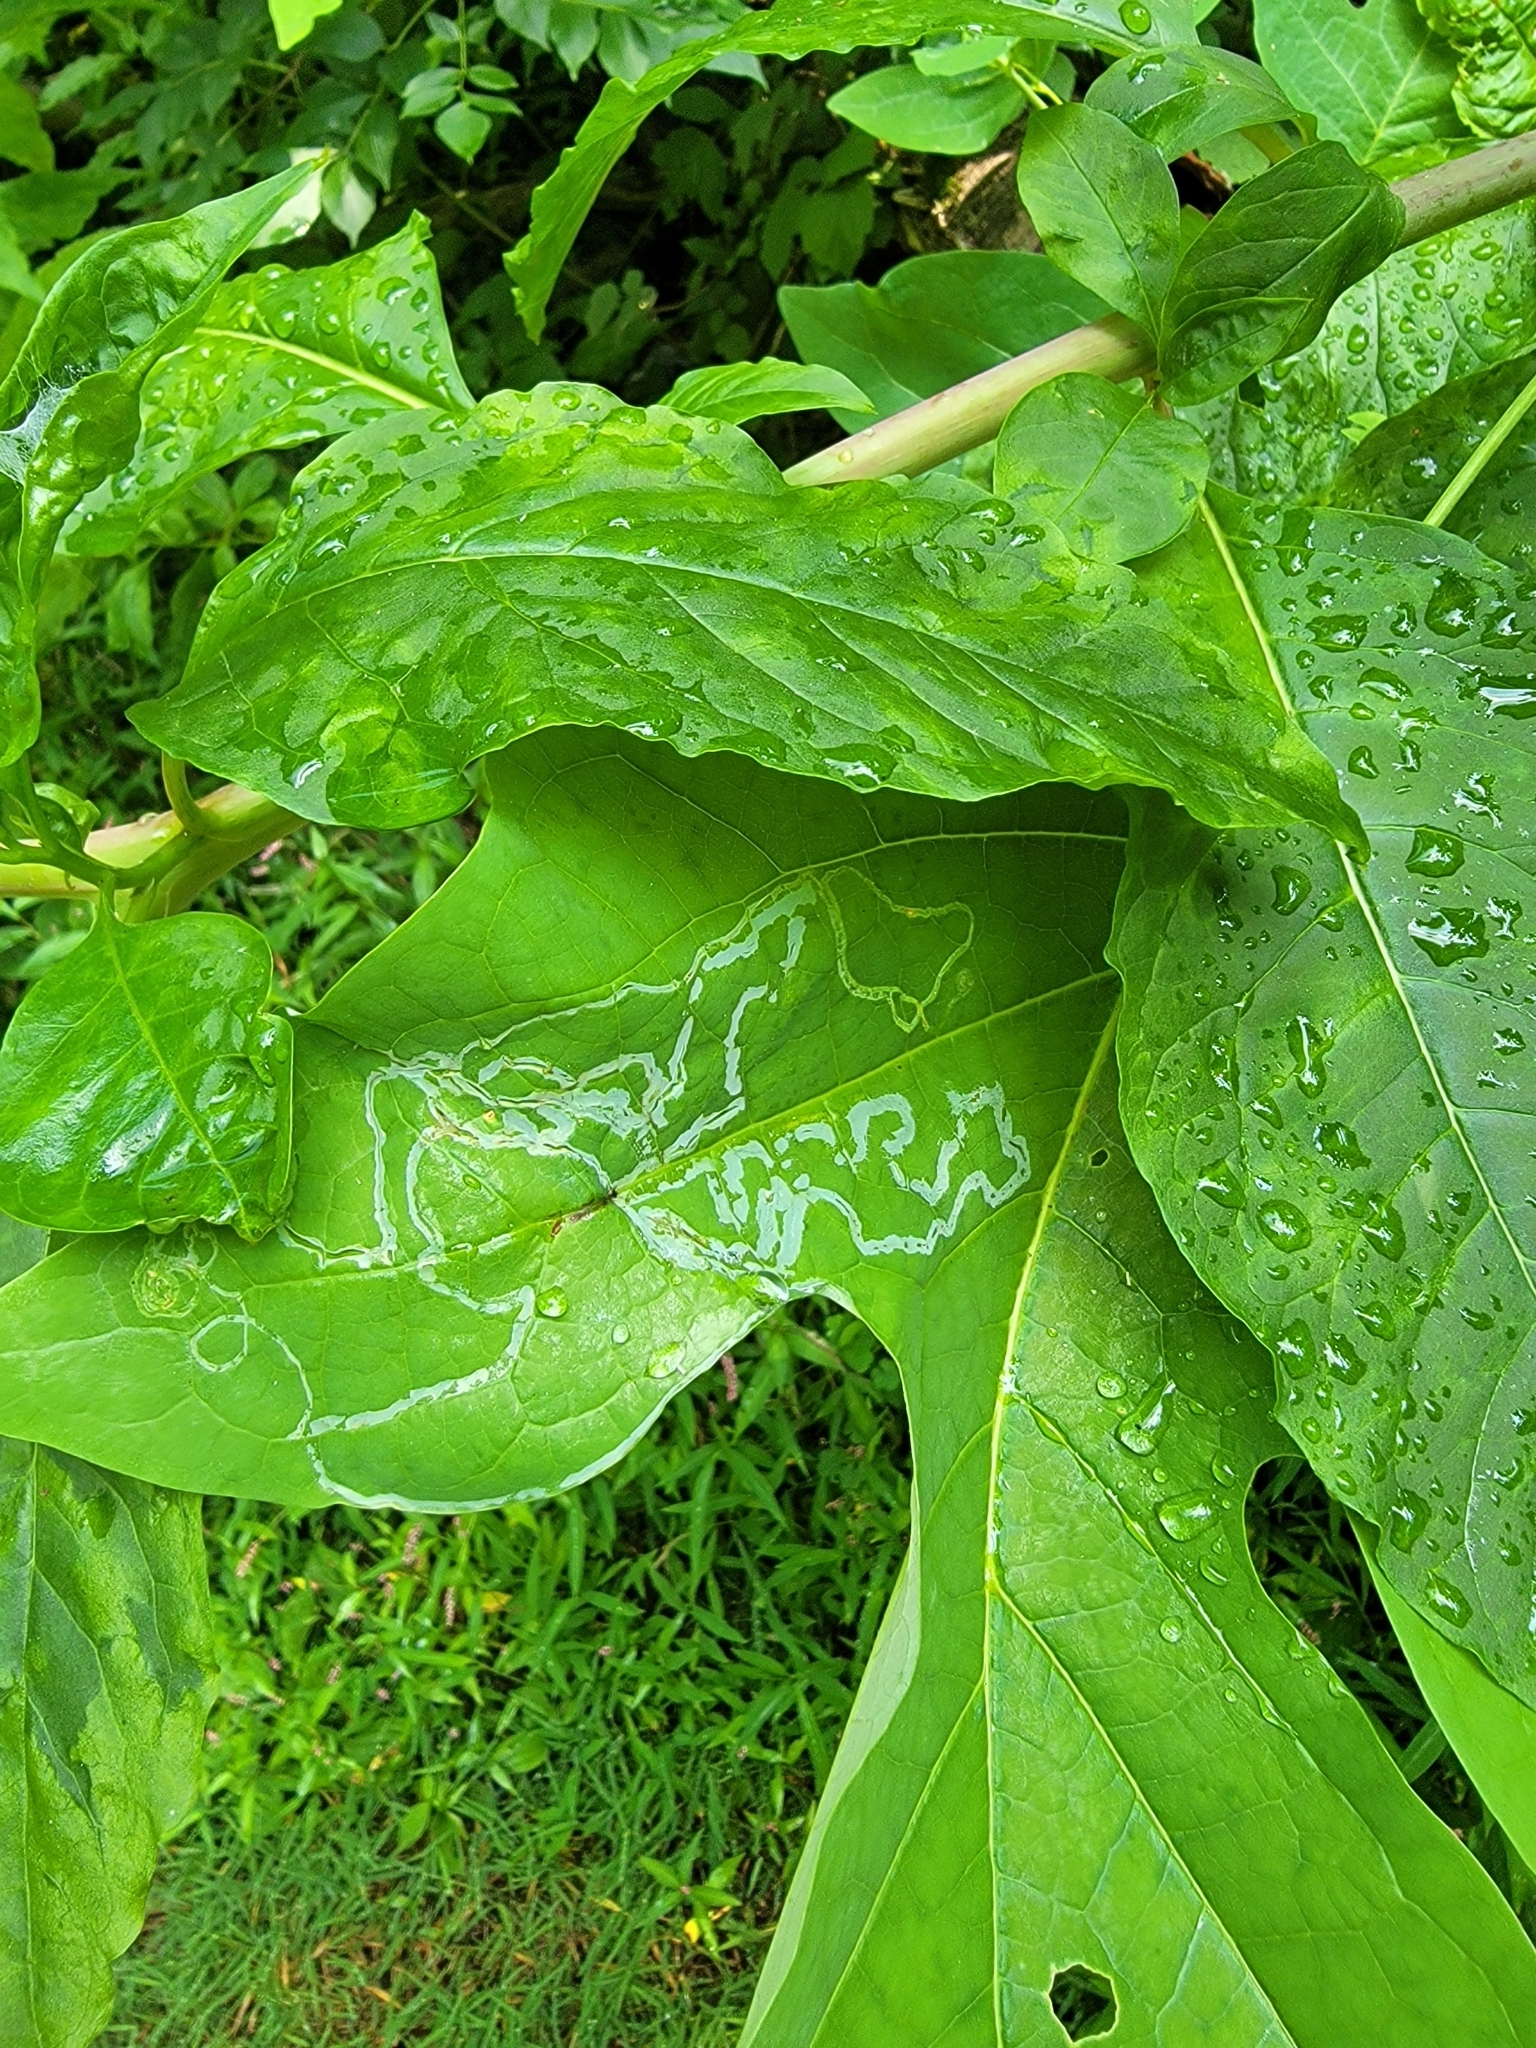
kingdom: Animalia
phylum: Arthropoda
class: Insecta
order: Lepidoptera
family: Gracillariidae
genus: Phyllocnistis
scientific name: Phyllocnistis liriodendronella
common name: Tulip tree leaf miner
